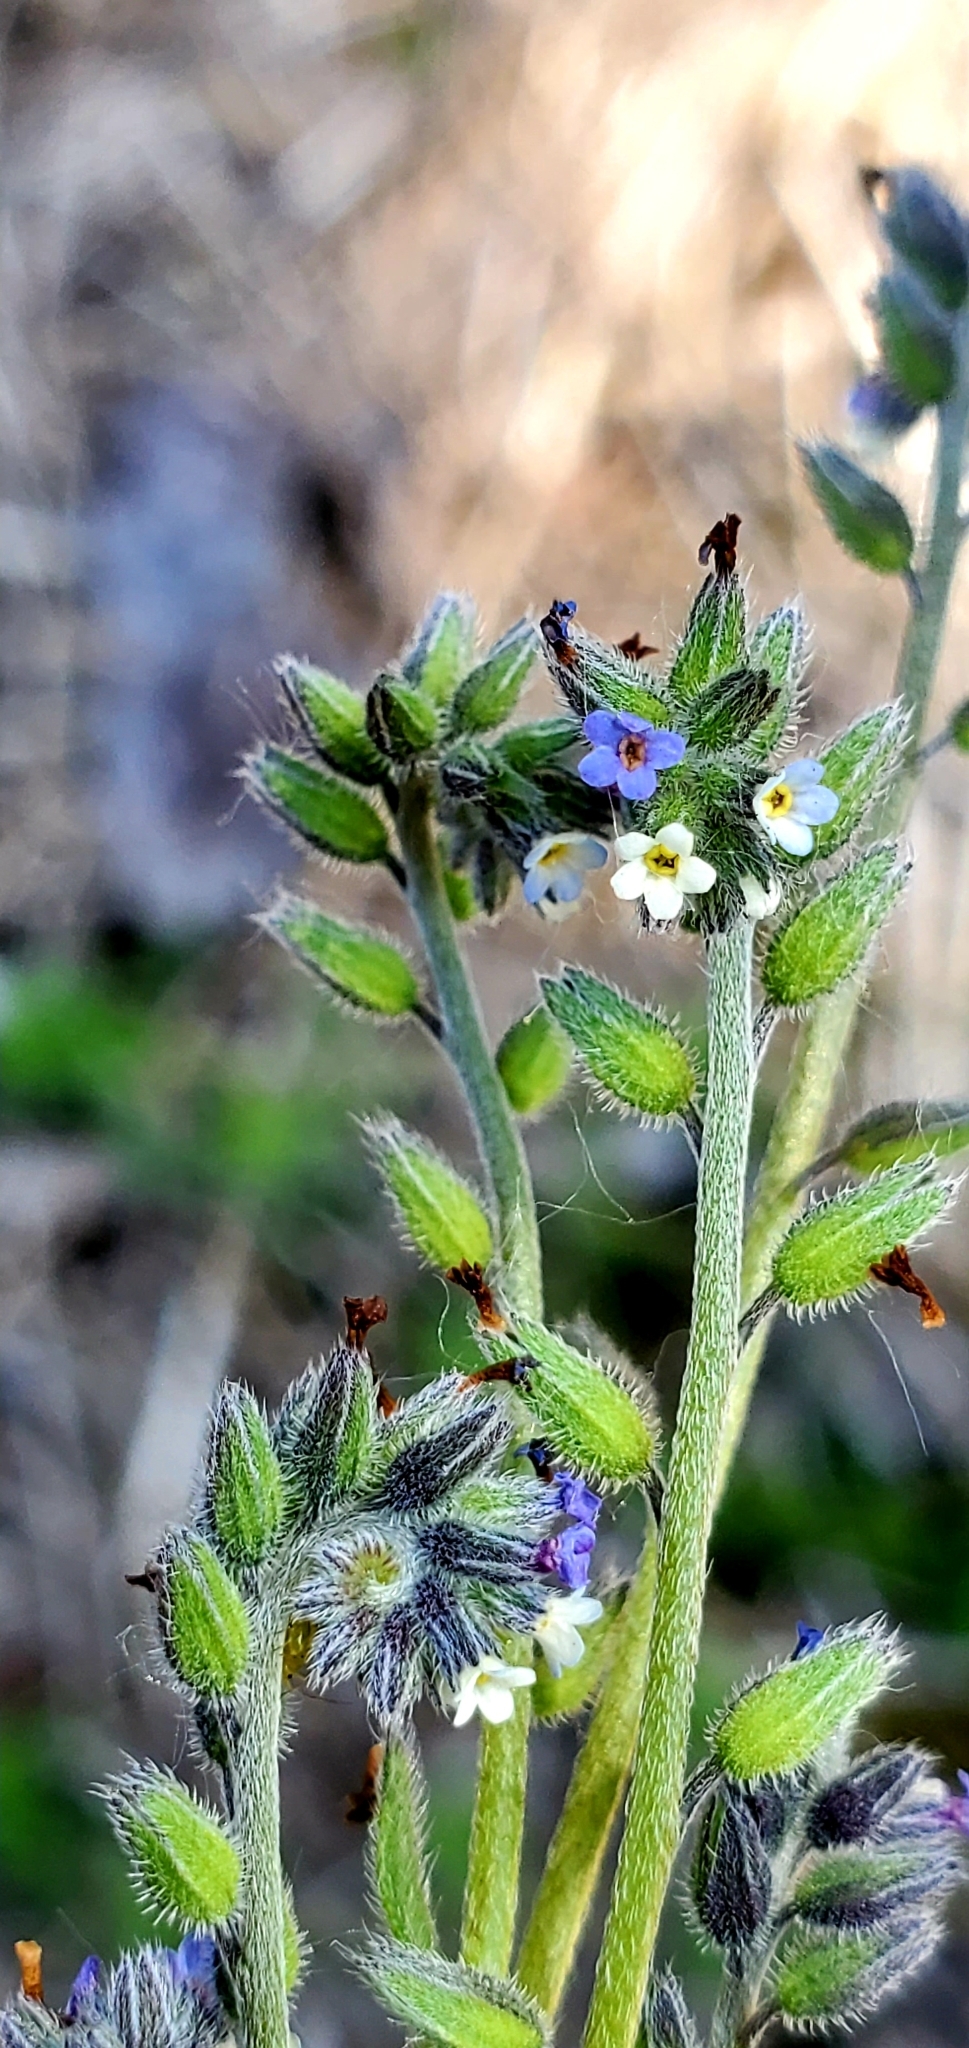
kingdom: Plantae
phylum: Tracheophyta
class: Magnoliopsida
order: Boraginales
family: Boraginaceae
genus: Myosotis
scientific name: Myosotis discolor
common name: Changing forget-me-not
